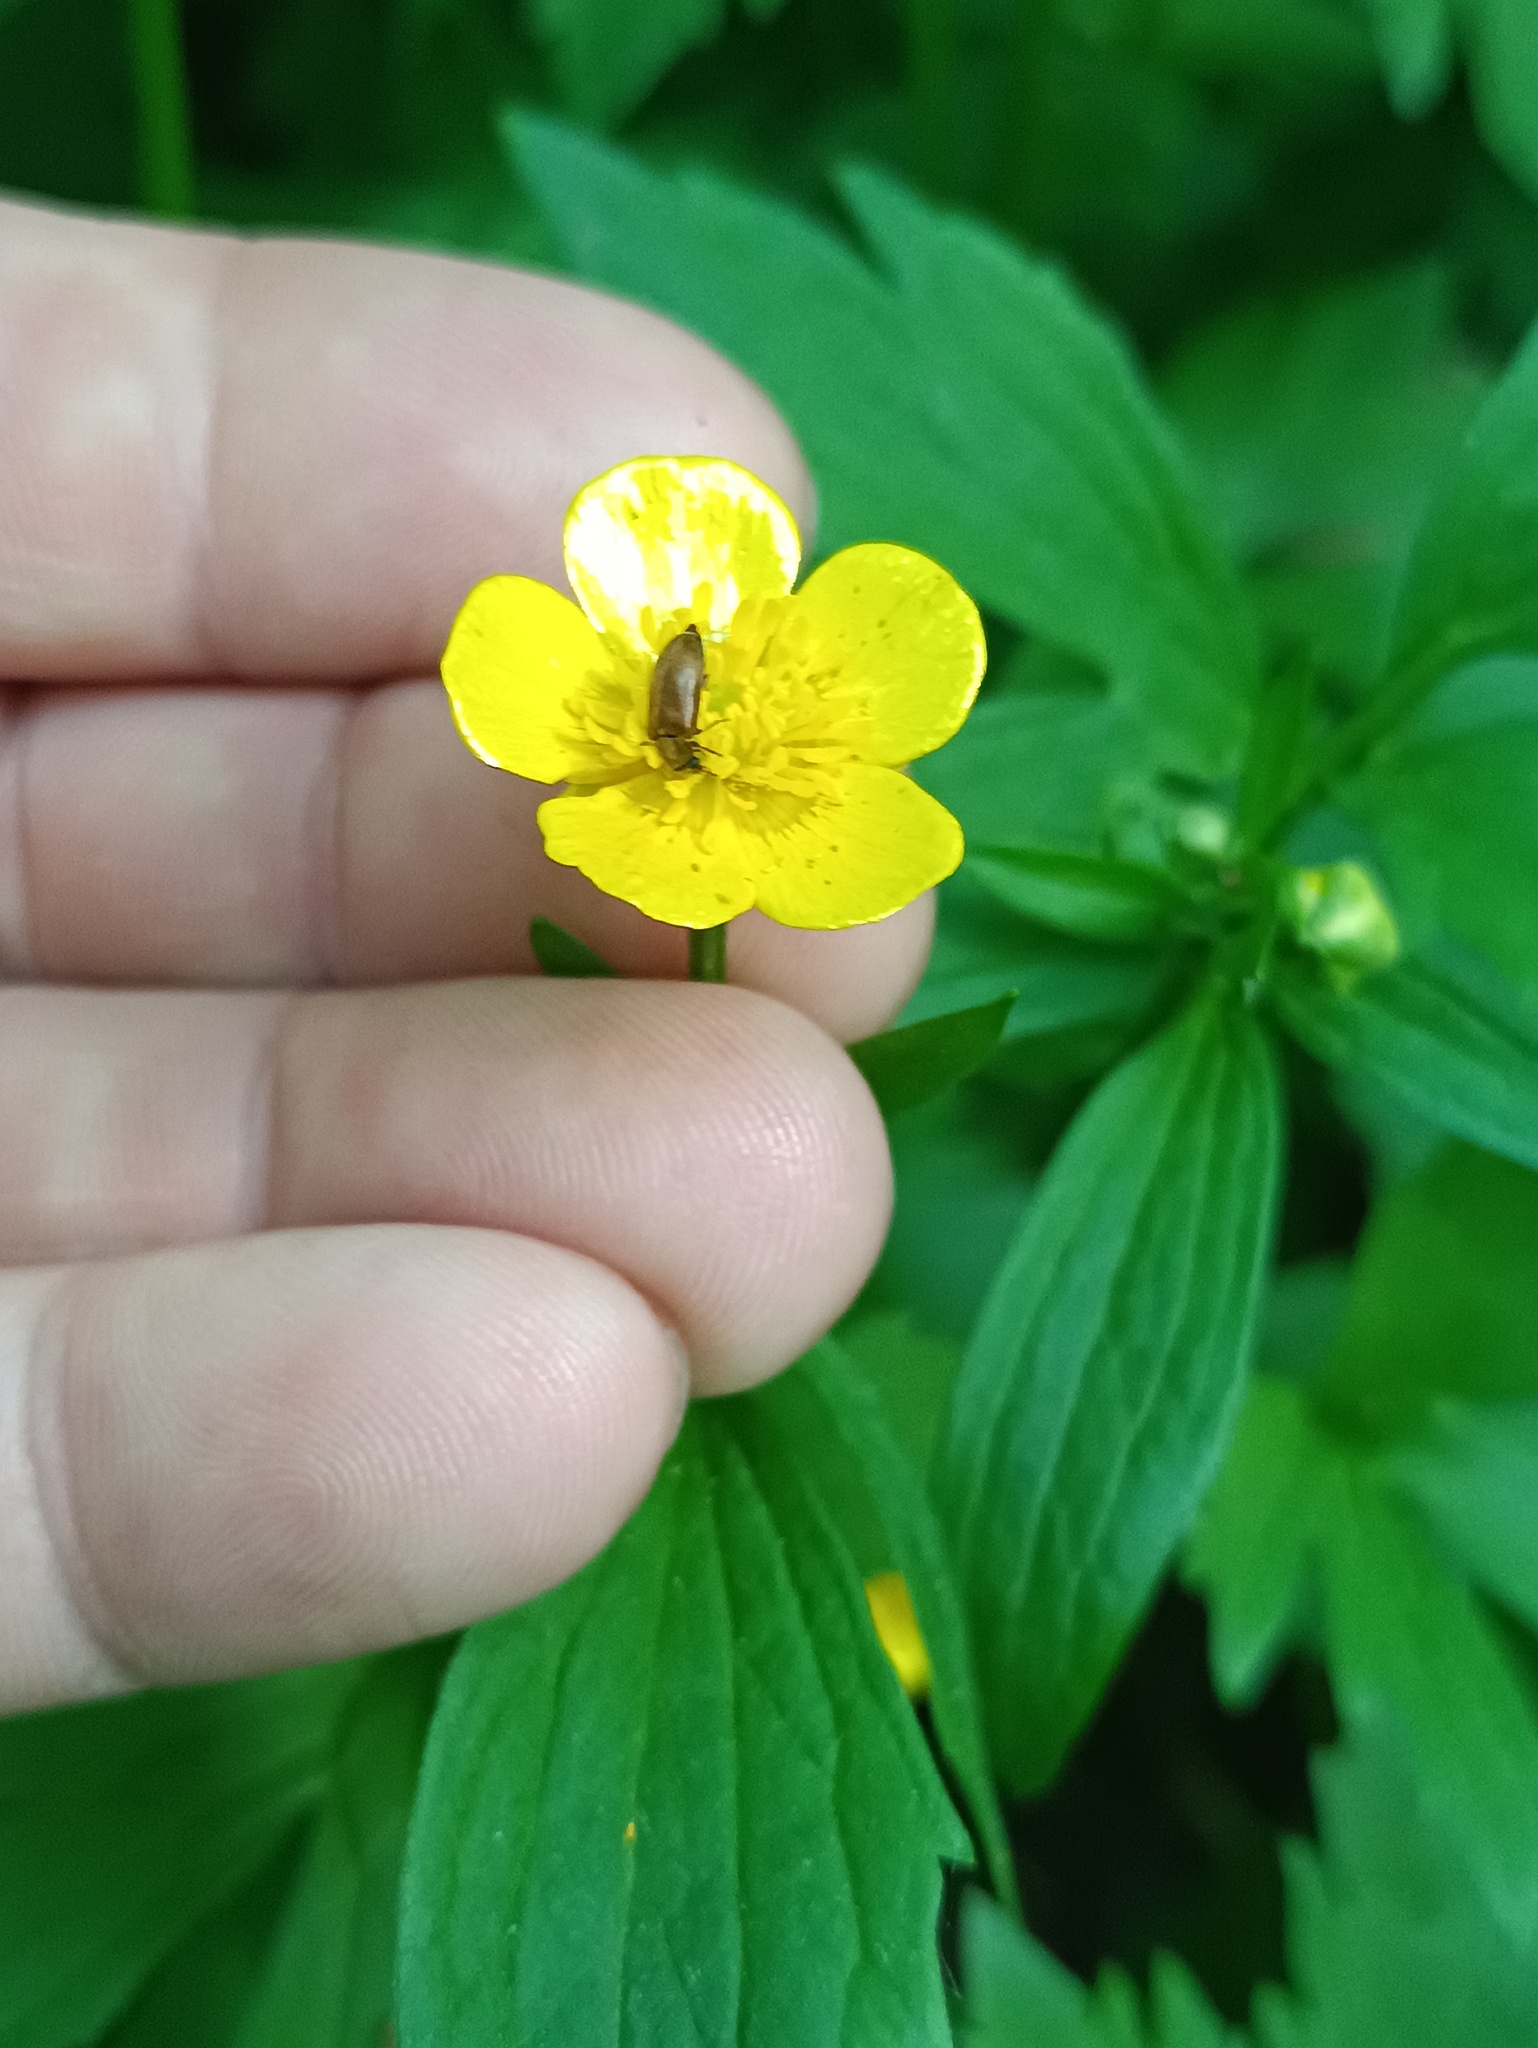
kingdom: Plantae
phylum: Tracheophyta
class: Magnoliopsida
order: Ranunculales
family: Ranunculaceae
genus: Ranunculus
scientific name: Ranunculus repens
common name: Creeping buttercup
